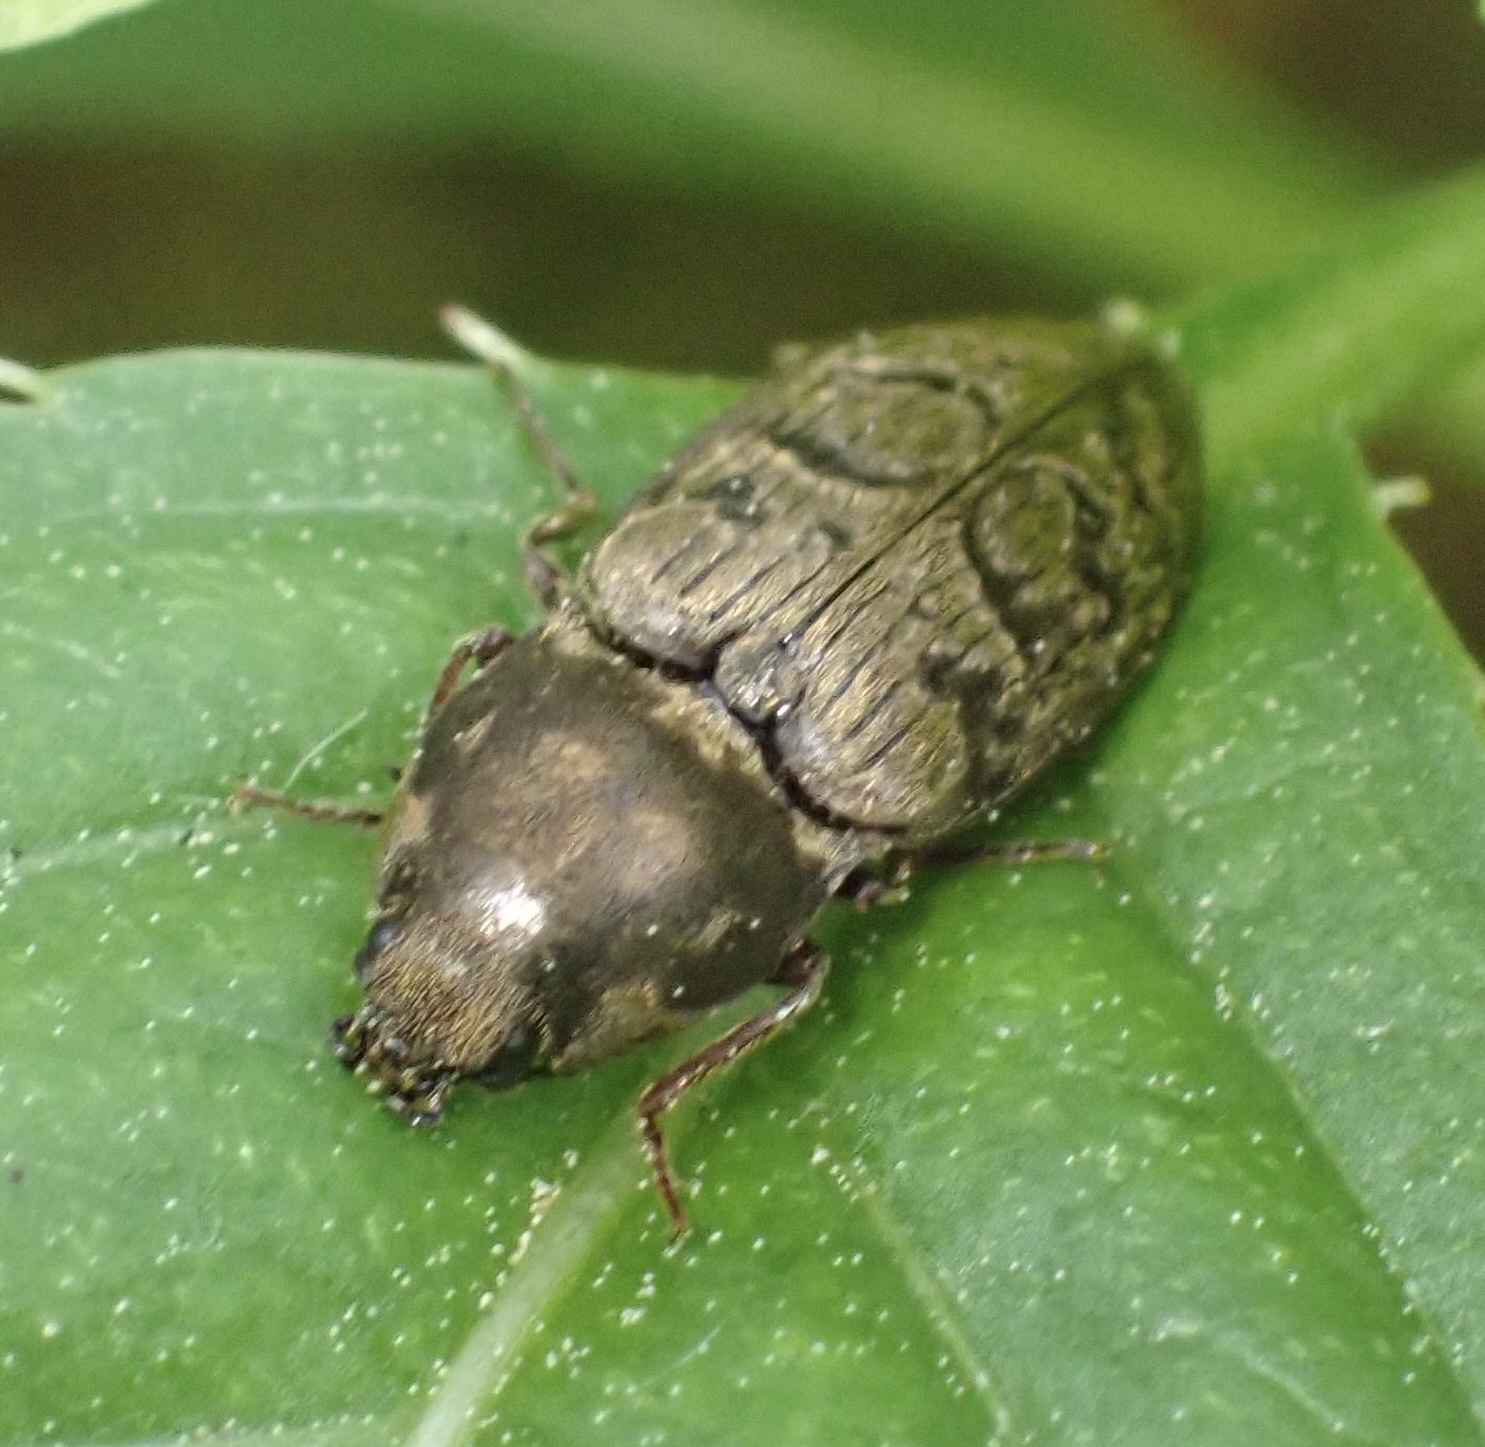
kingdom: Animalia
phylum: Arthropoda
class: Insecta
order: Coleoptera
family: Elateridae
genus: Prosternon
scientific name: Prosternon tessellatum
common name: Chequered click beetle
